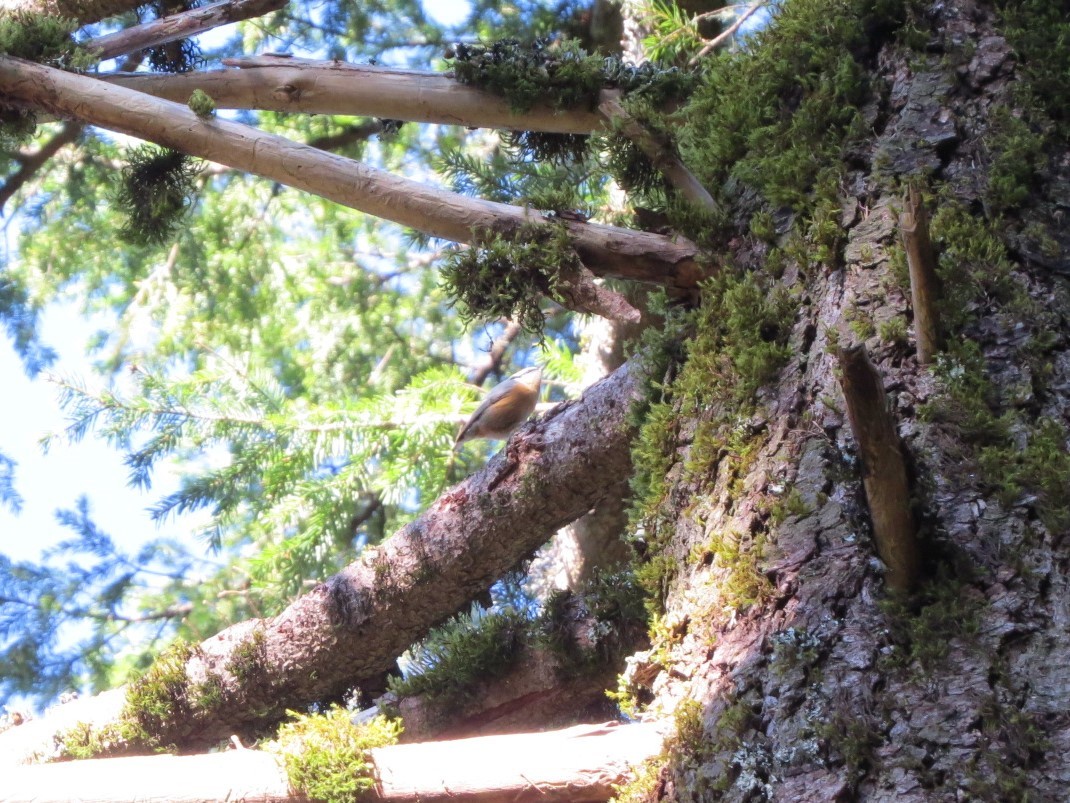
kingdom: Animalia
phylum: Chordata
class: Aves
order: Passeriformes
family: Sittidae
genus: Sitta
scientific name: Sitta canadensis
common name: Red-breasted nuthatch
